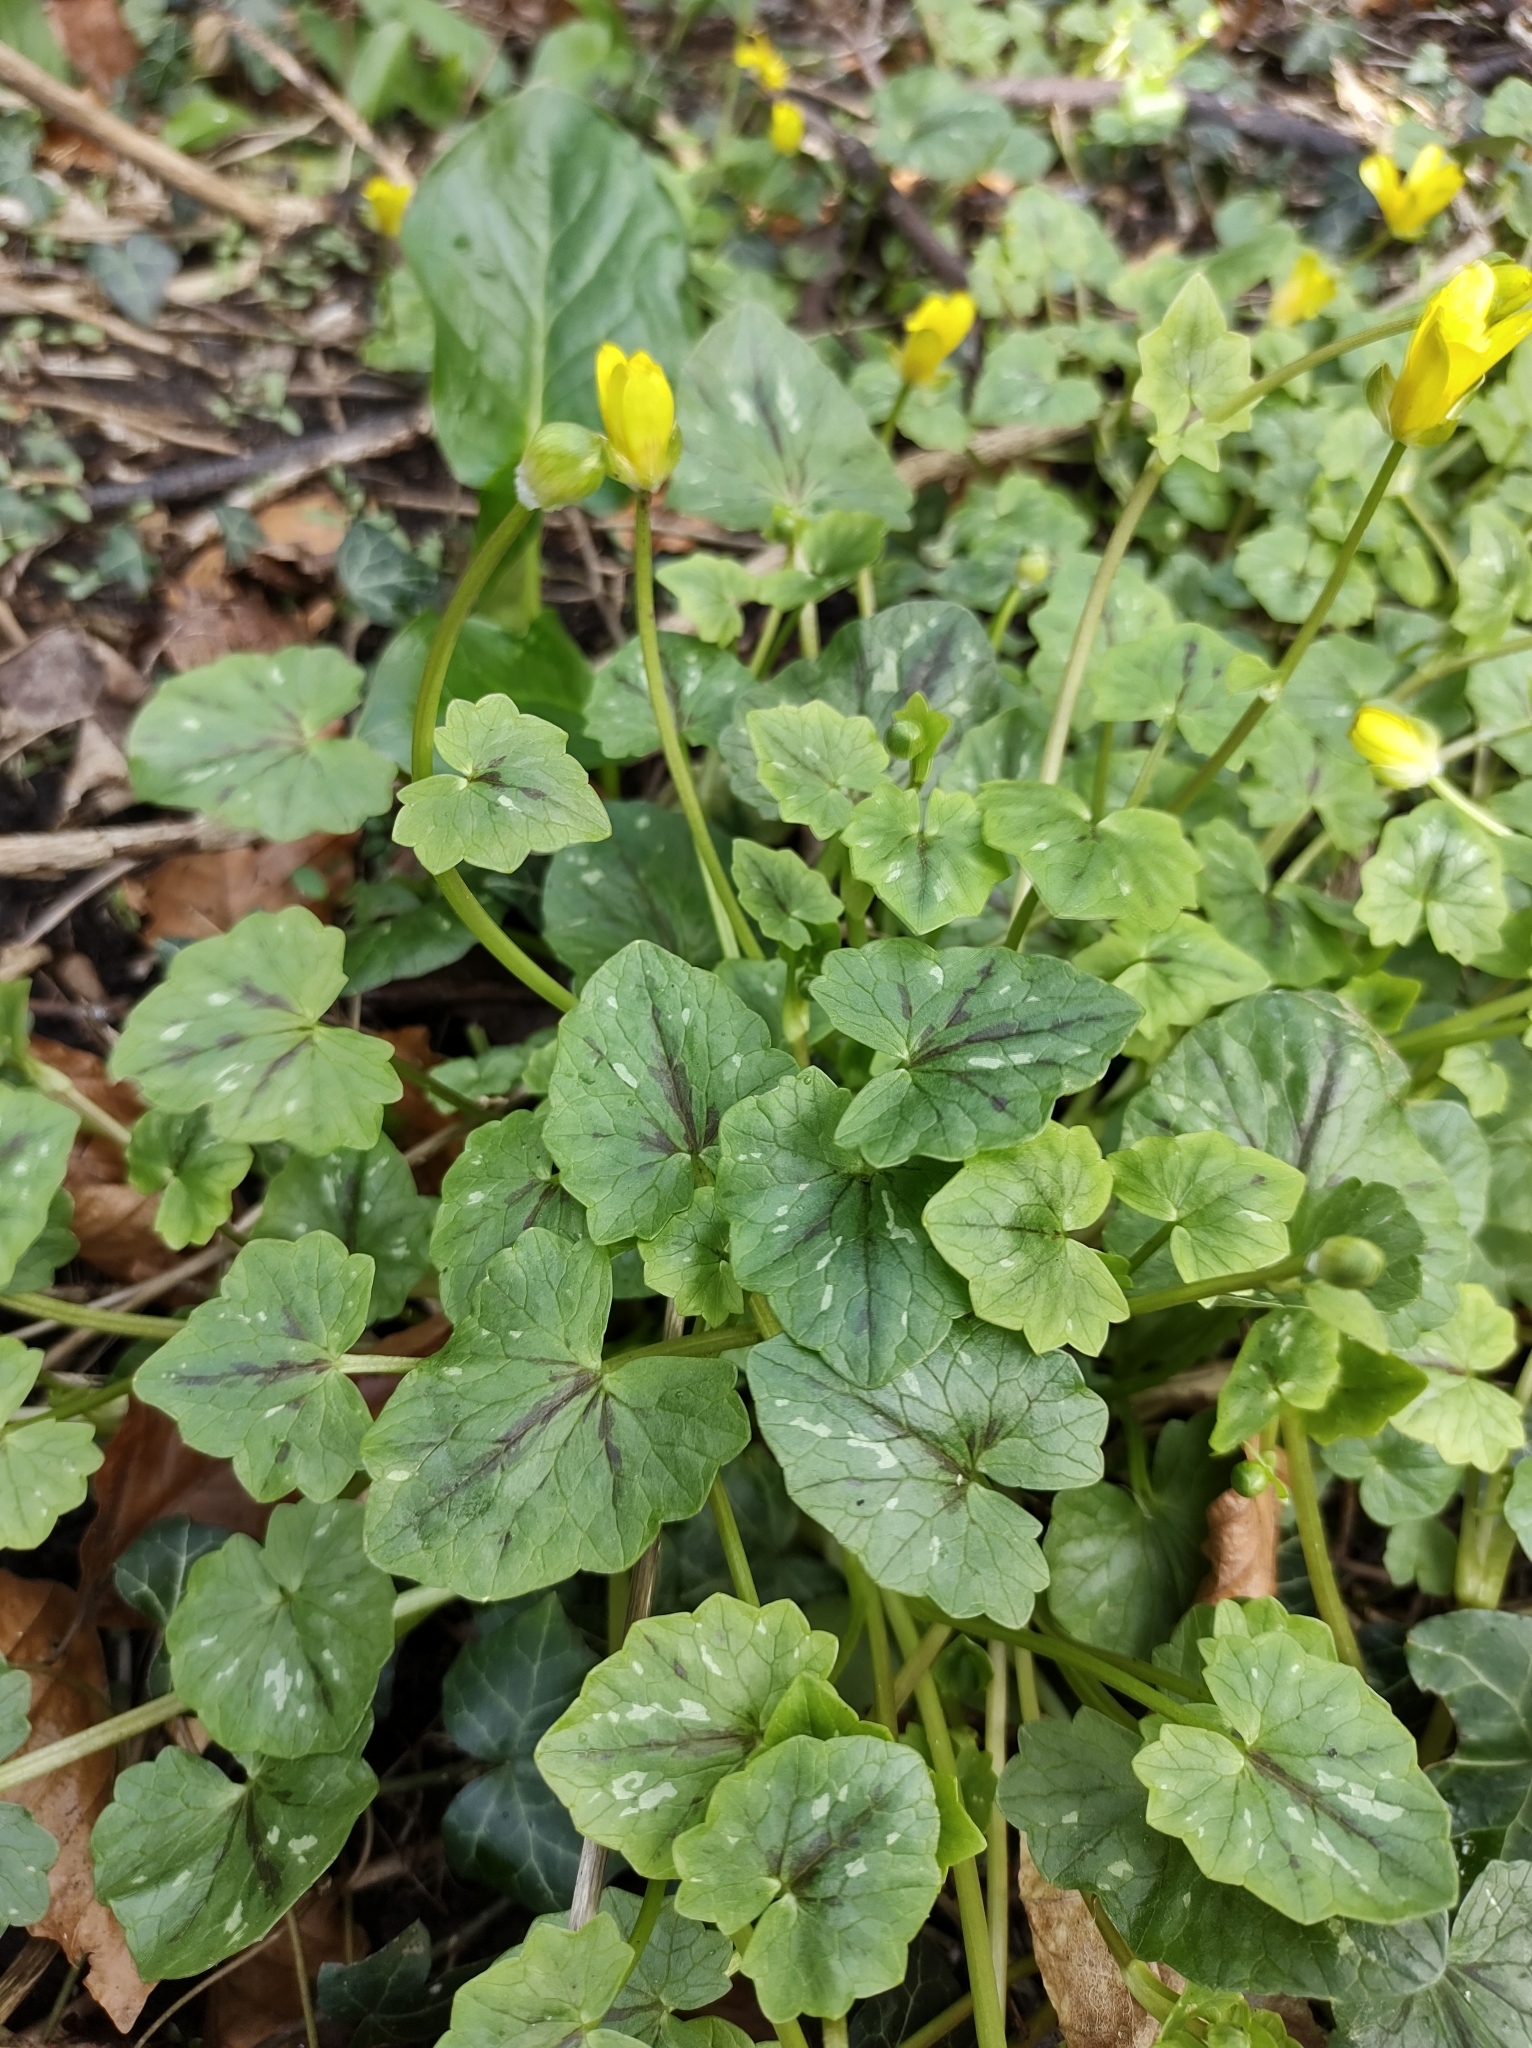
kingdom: Plantae
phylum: Tracheophyta
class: Magnoliopsida
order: Ranunculales
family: Ranunculaceae
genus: Ficaria
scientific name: Ficaria verna
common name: Lesser celandine
